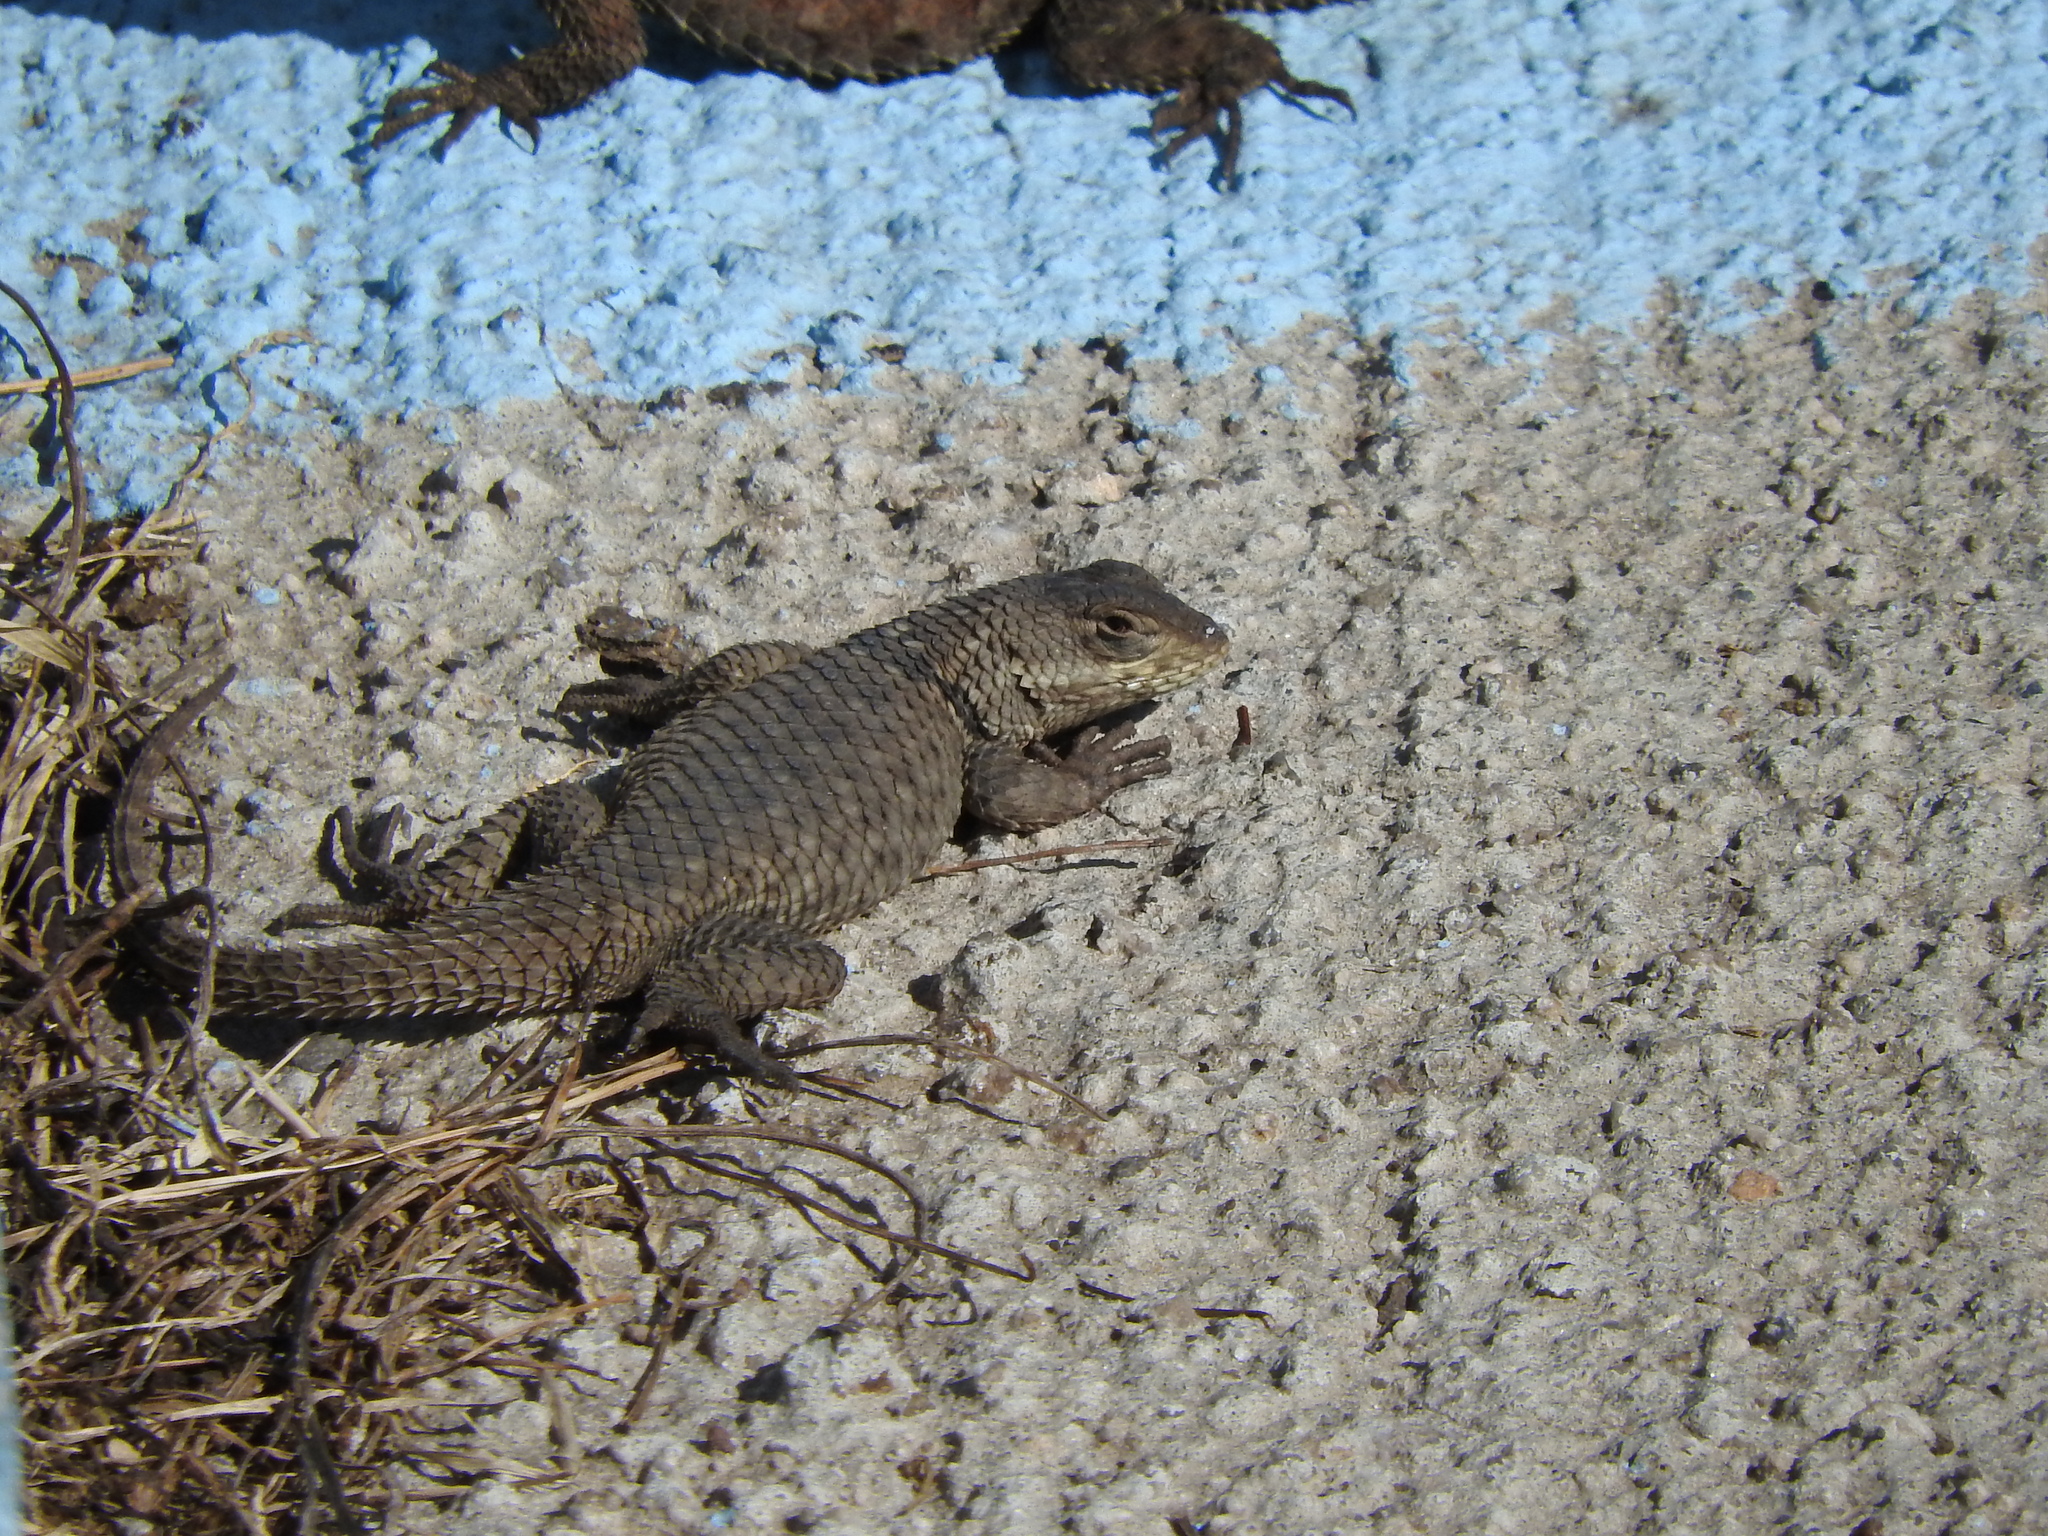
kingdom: Animalia
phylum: Chordata
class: Squamata
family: Phrynosomatidae
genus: Sceloporus
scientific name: Sceloporus torquatus
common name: Central plateau torquate lizard [melanogaster]
